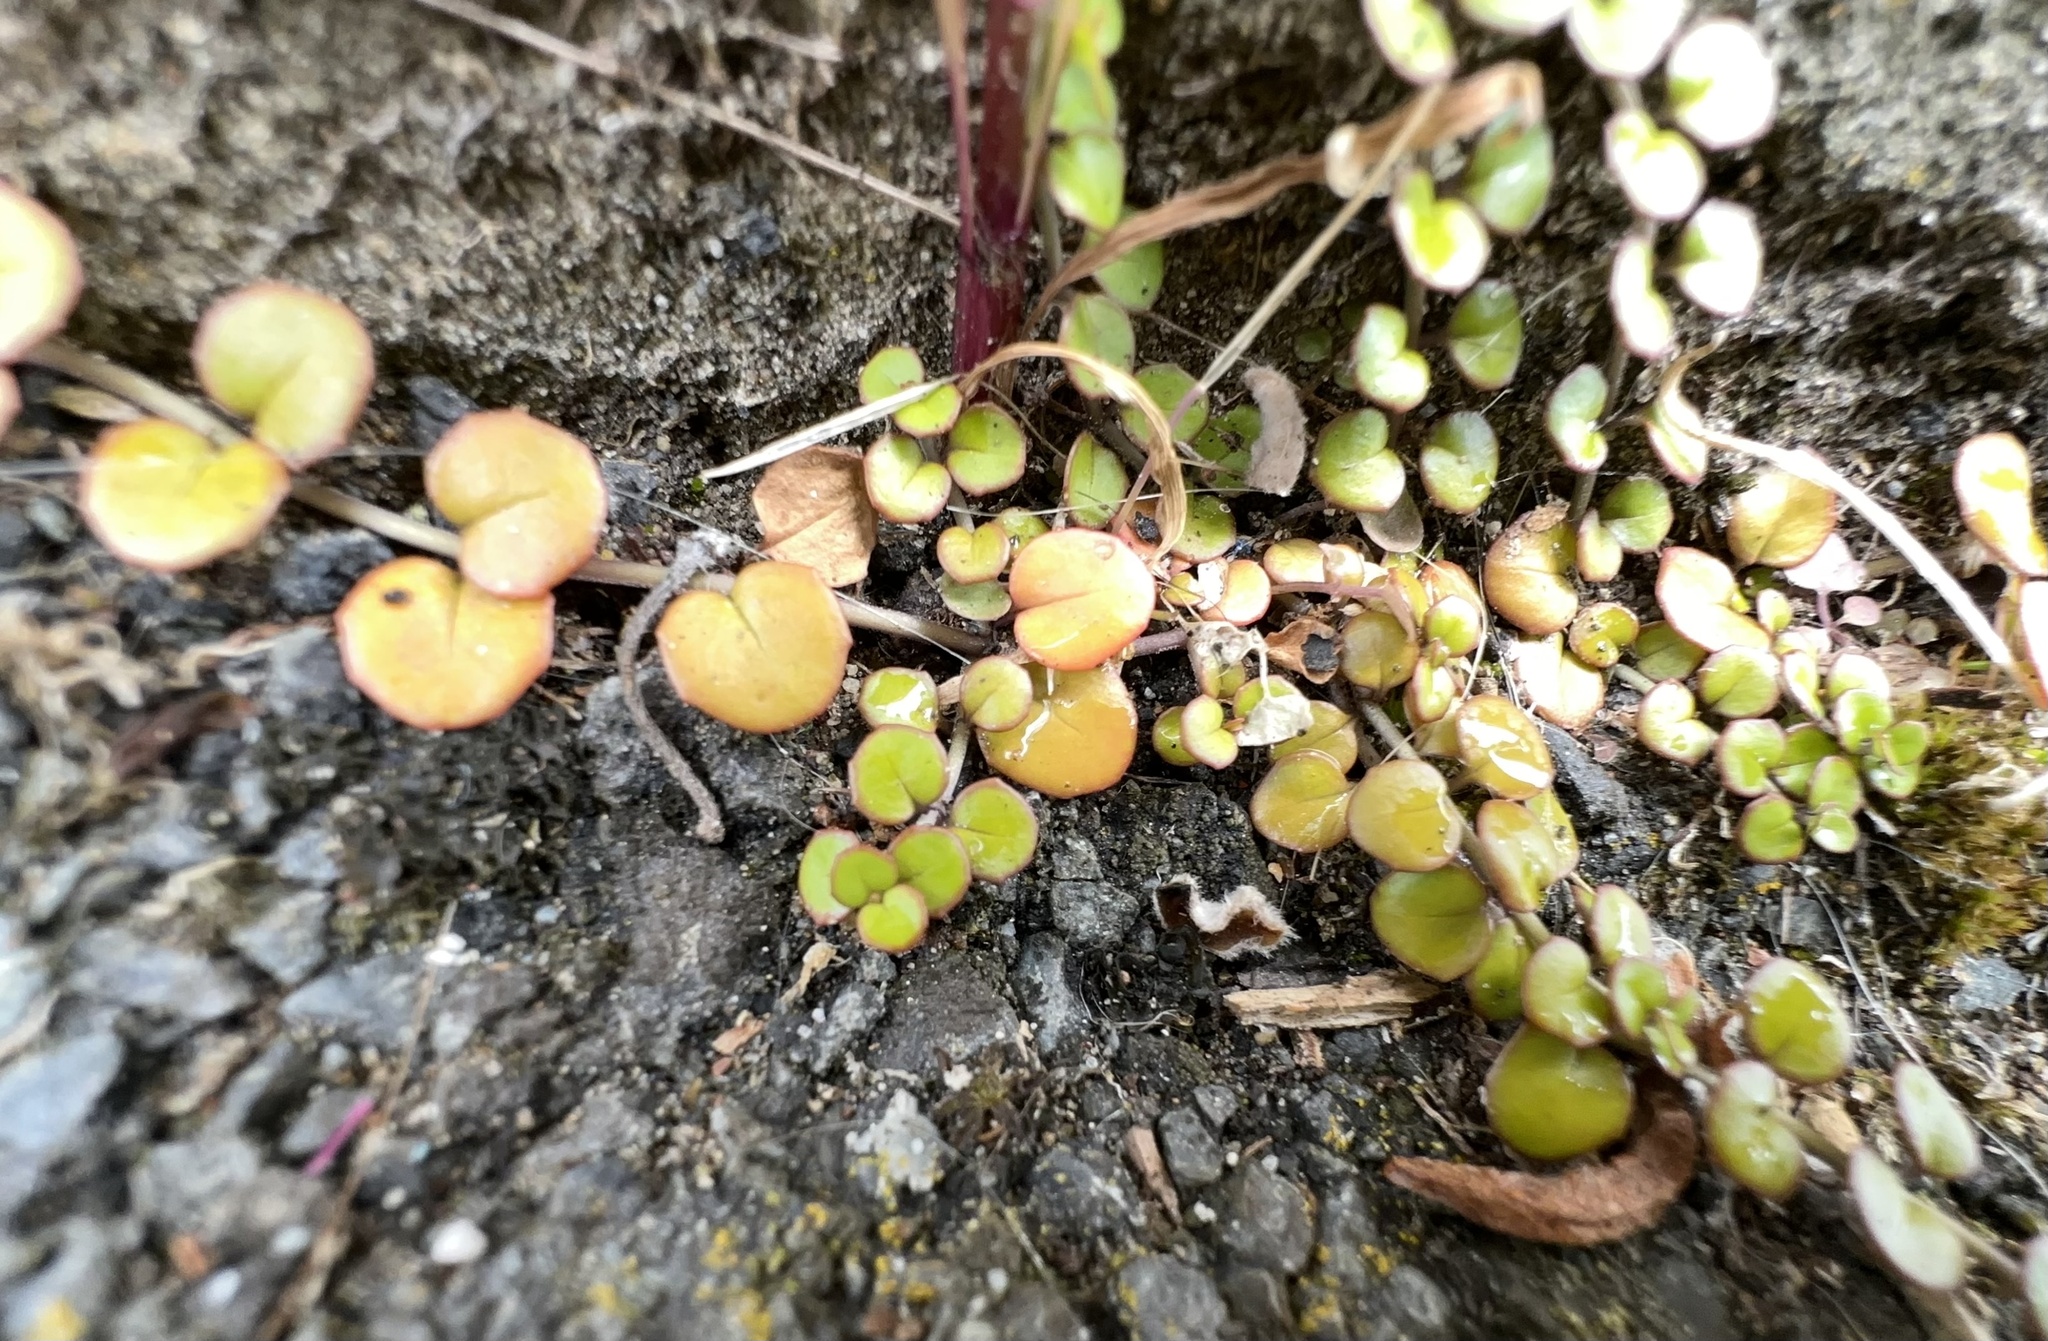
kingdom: Plantae
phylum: Tracheophyta
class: Magnoliopsida
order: Myrtales
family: Onagraceae
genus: Epilobium
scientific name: Epilobium nummularifolium
